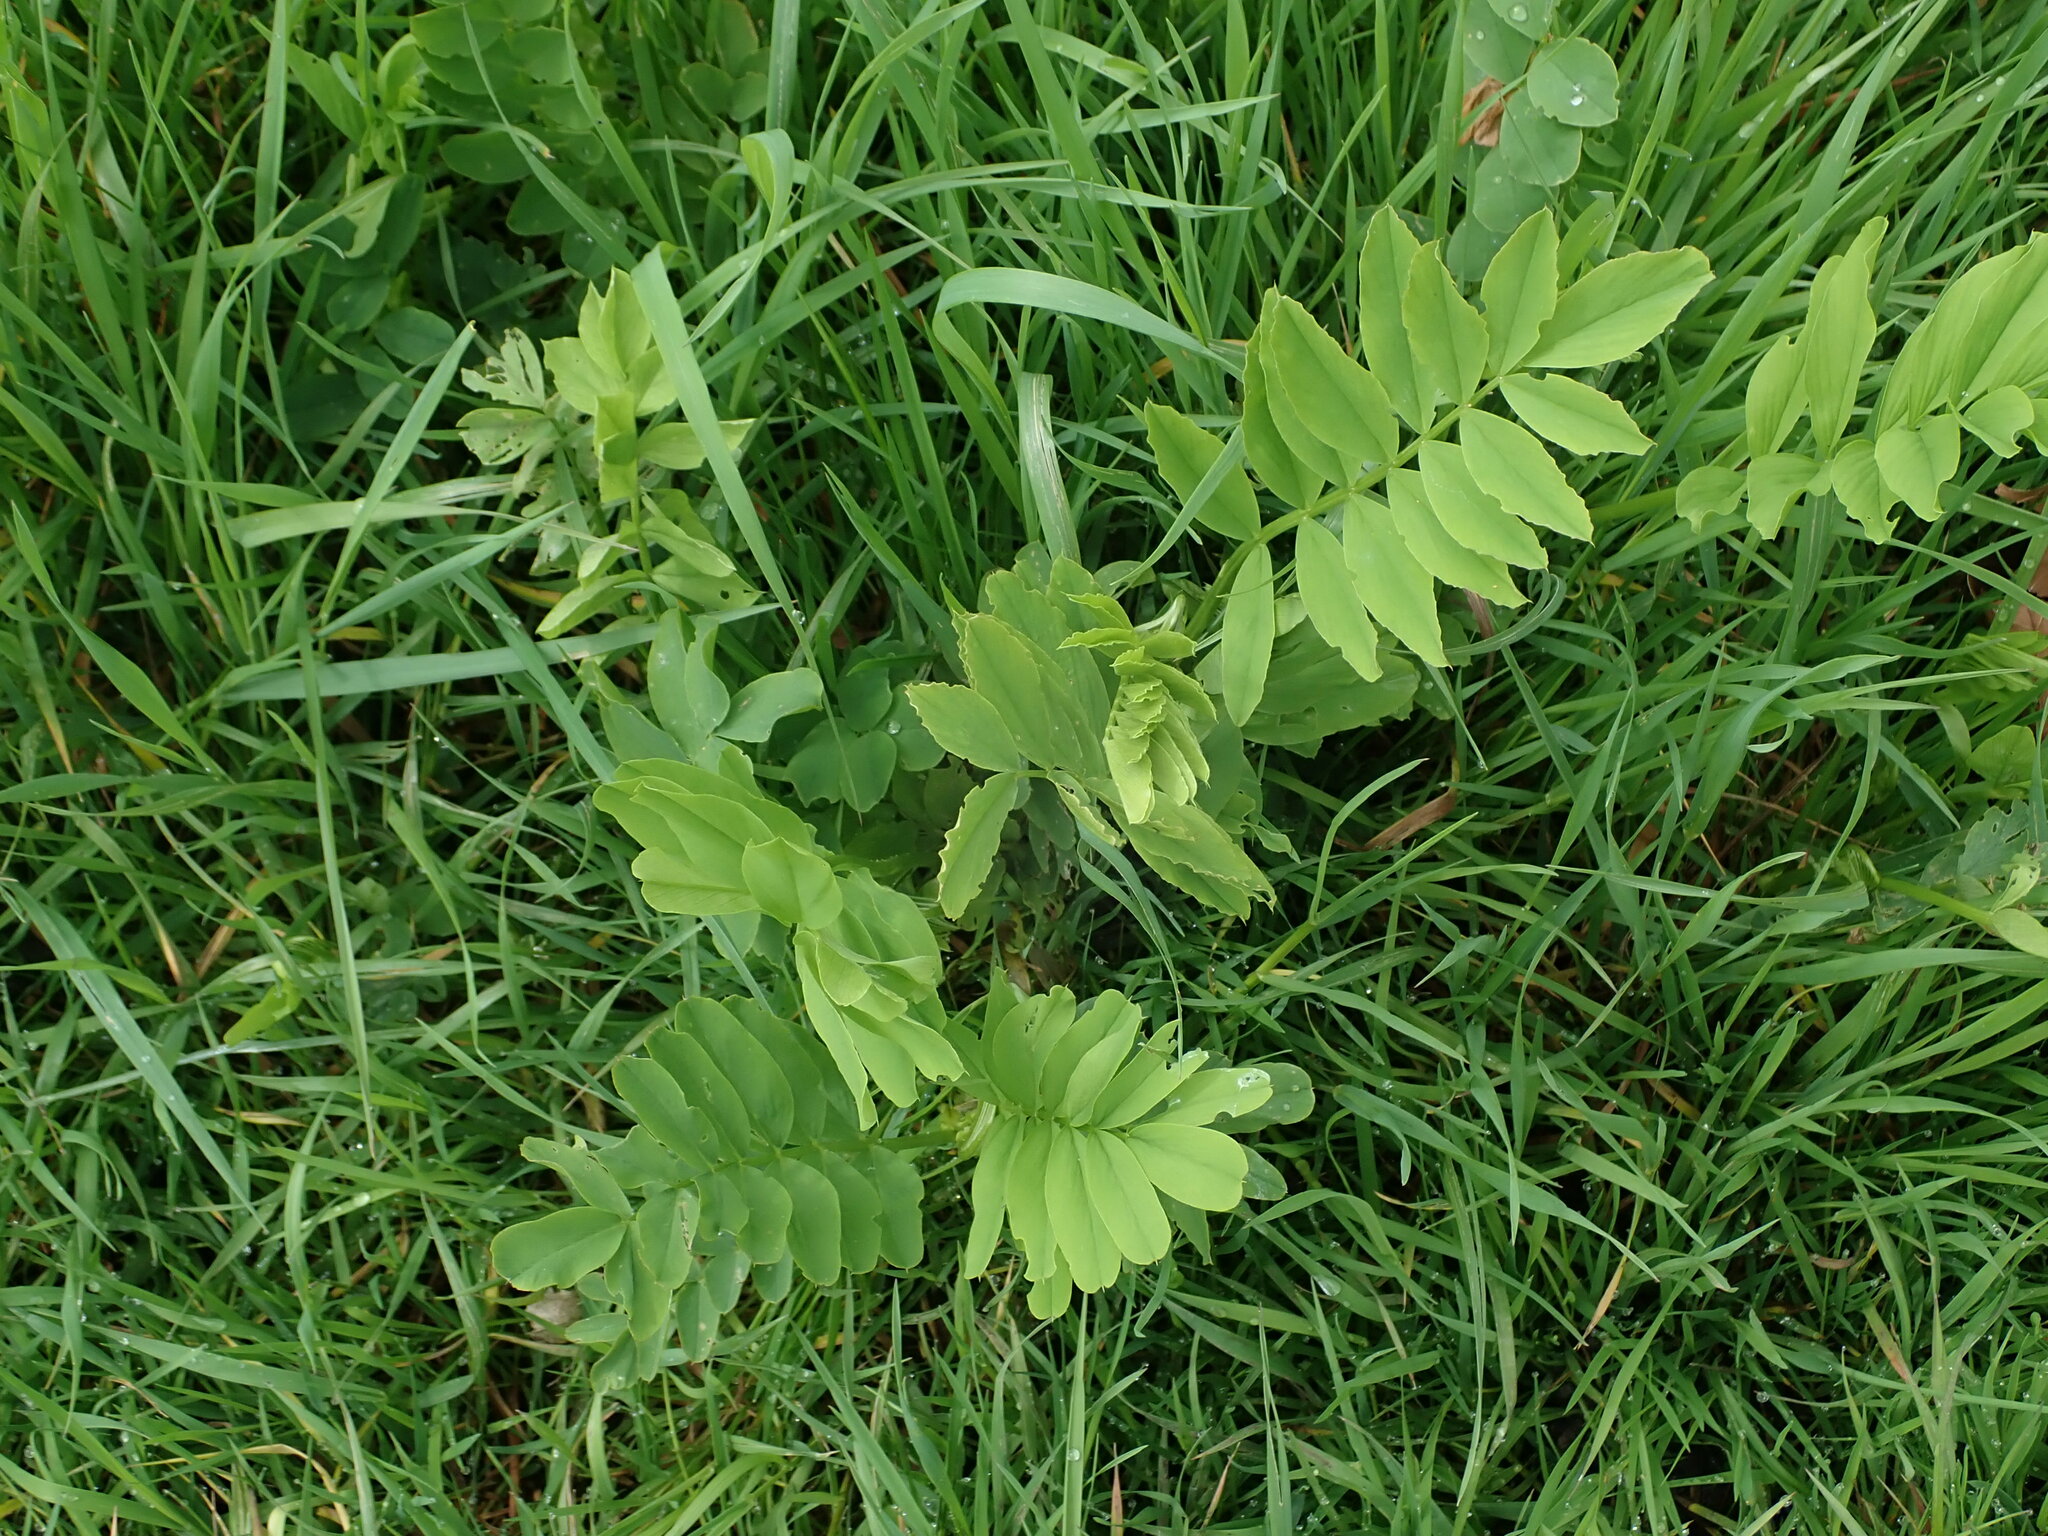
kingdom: Plantae
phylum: Tracheophyta
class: Magnoliopsida
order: Fabales
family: Fabaceae
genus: Galega
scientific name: Galega officinalis
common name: Goat's-rue
